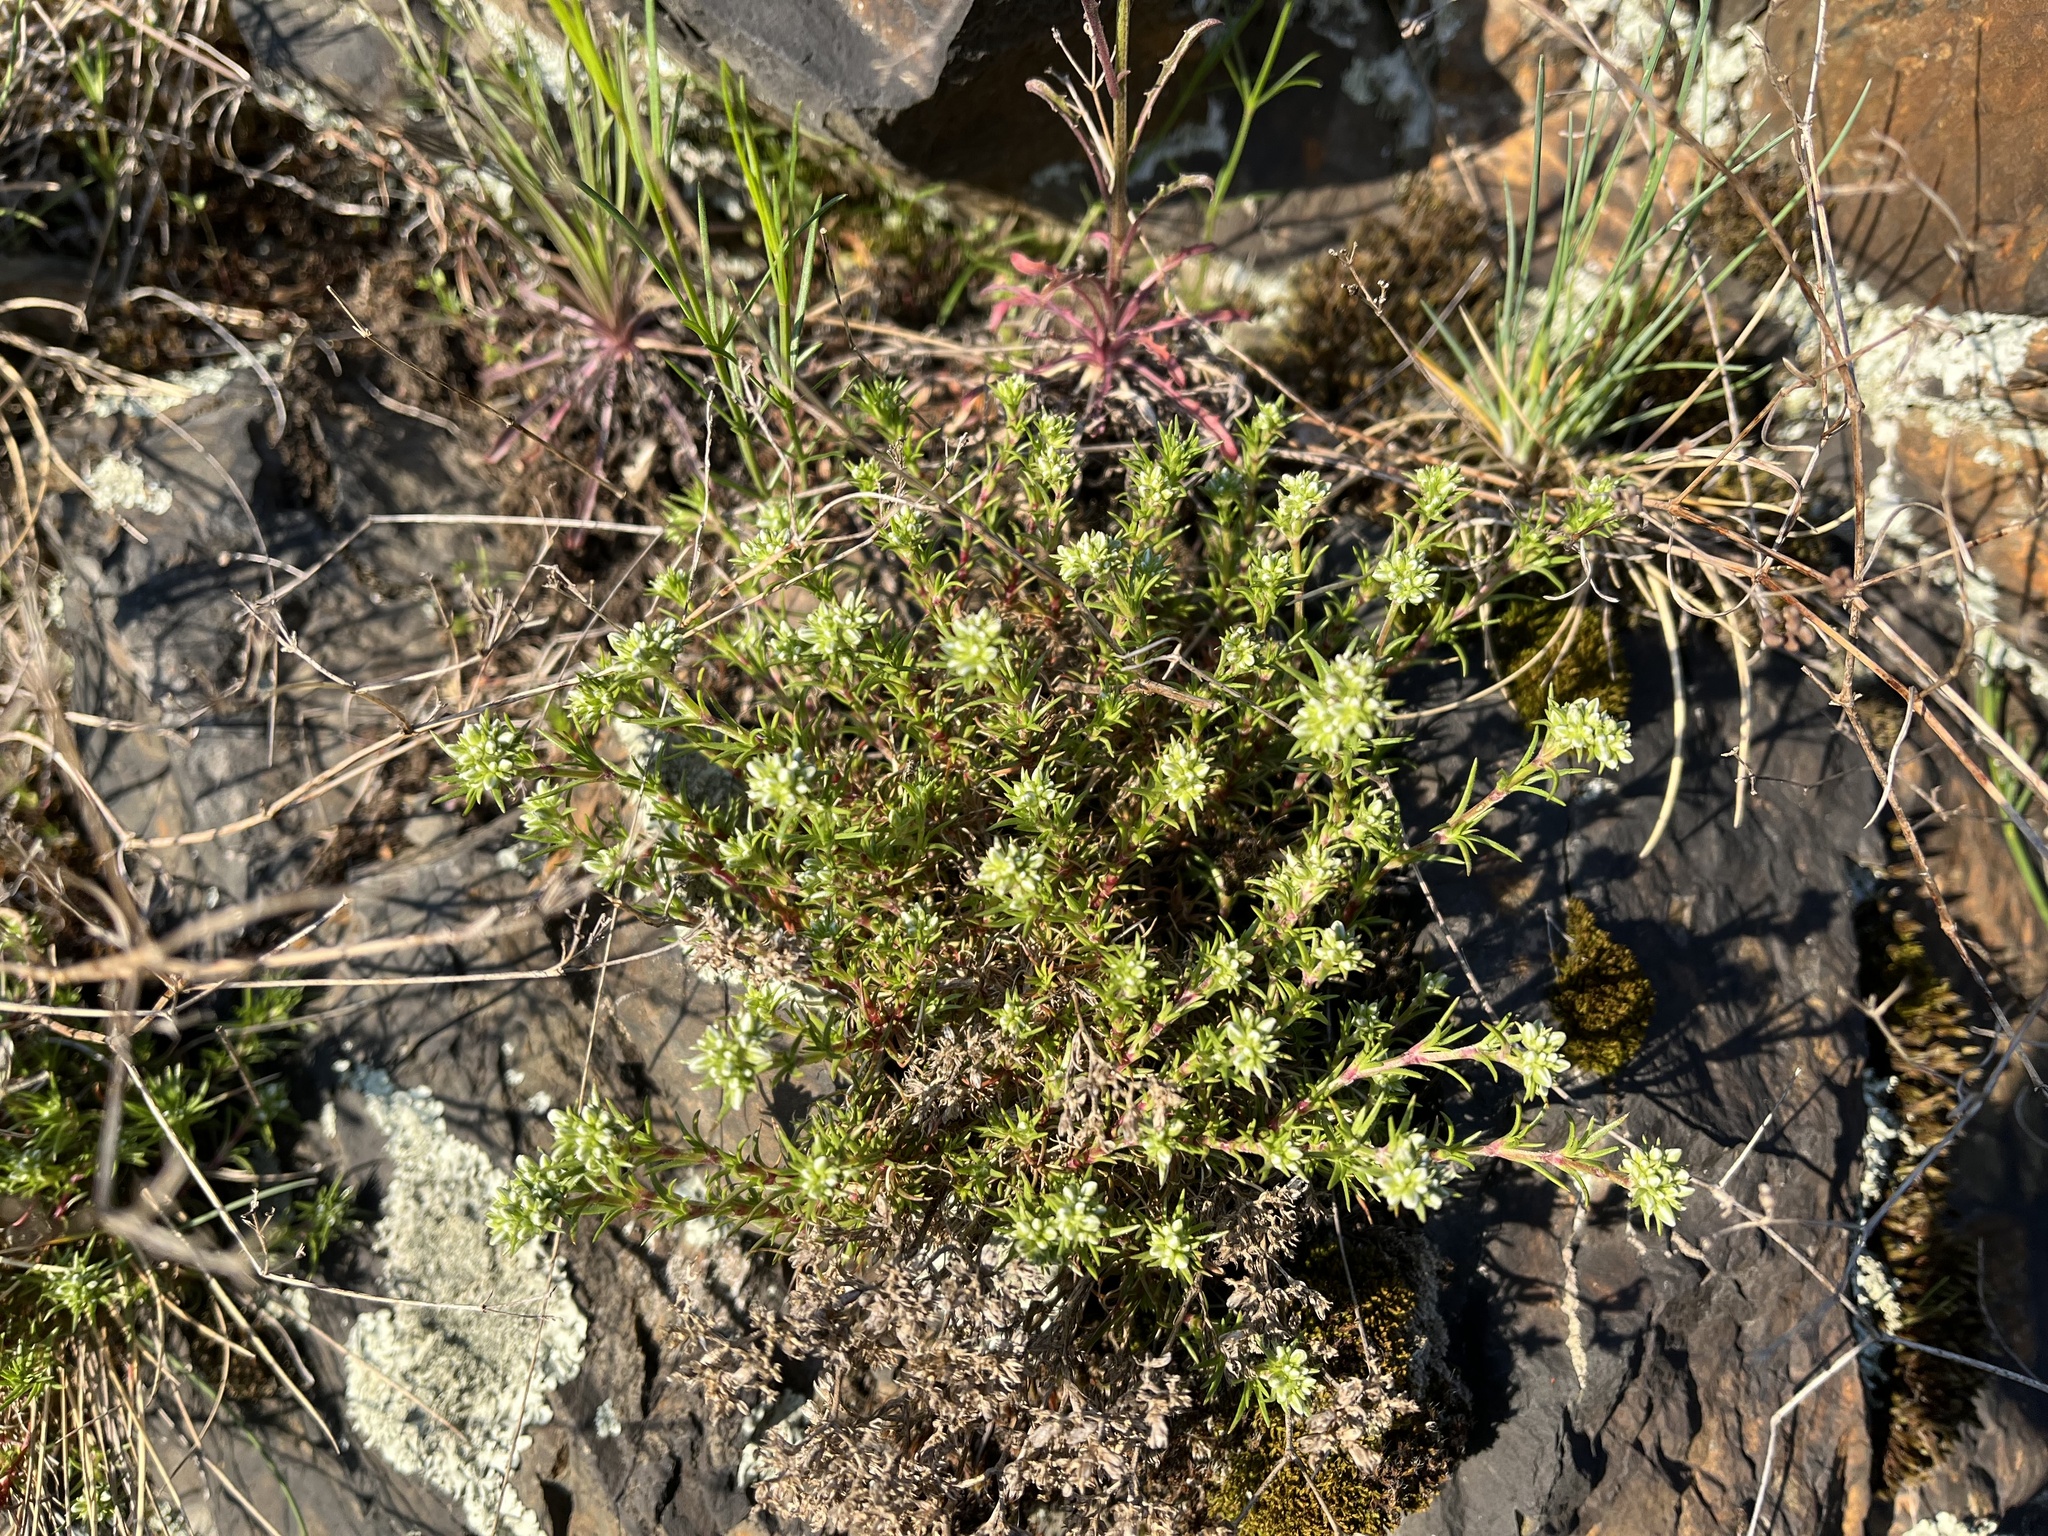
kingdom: Plantae
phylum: Tracheophyta
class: Magnoliopsida
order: Caryophyllales
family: Caryophyllaceae
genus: Scleranthus
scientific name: Scleranthus perennis
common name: Perennial knawel
